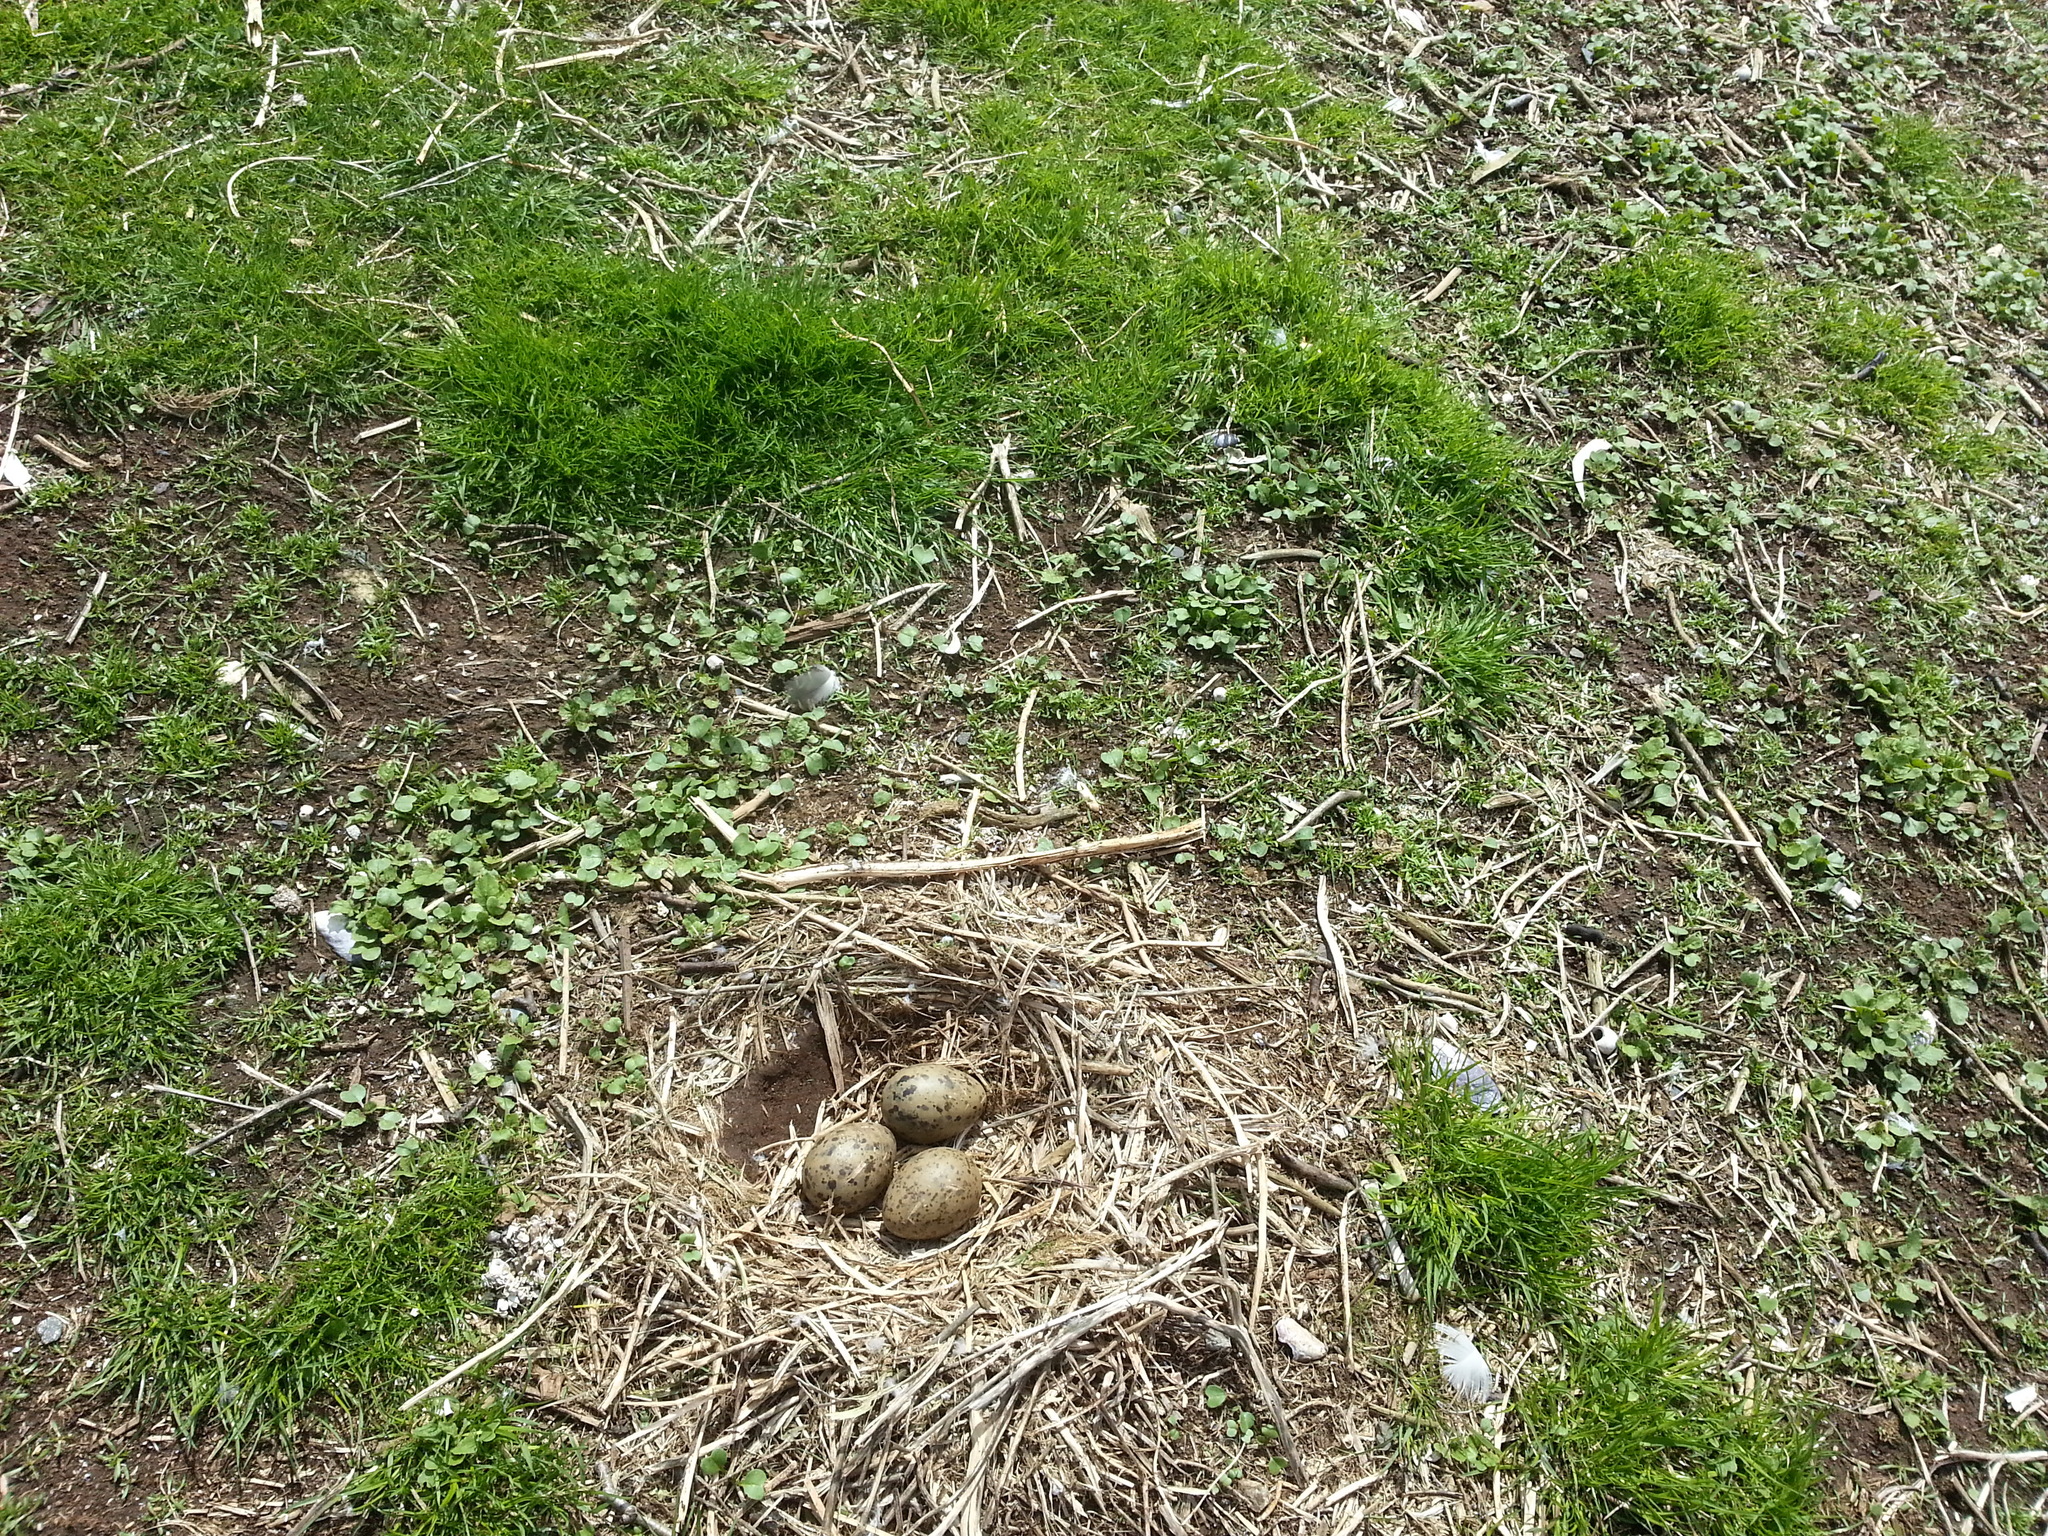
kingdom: Animalia
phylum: Chordata
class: Aves
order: Charadriiformes
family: Laridae
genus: Larus
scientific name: Larus
